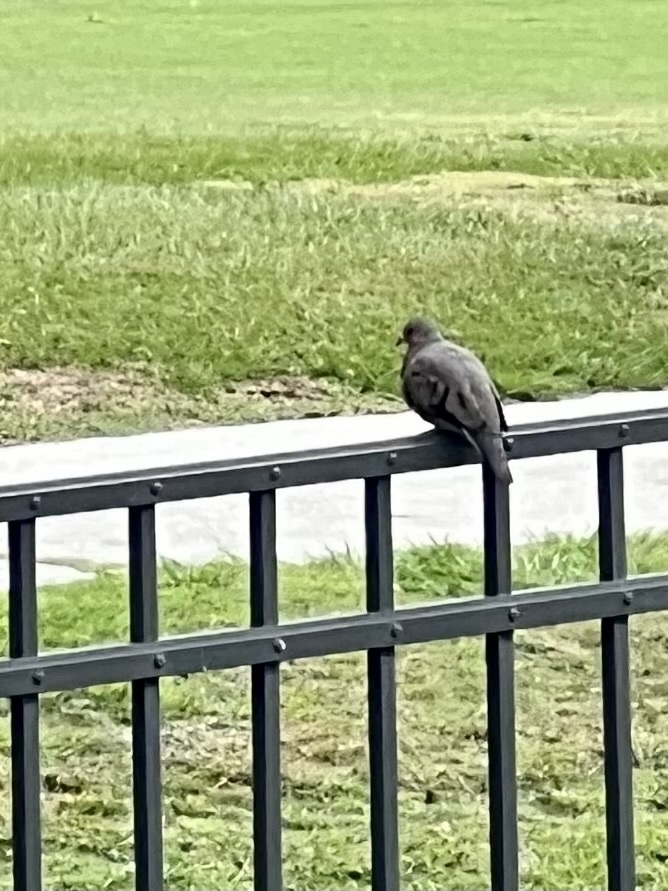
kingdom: Animalia
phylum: Chordata
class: Aves
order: Columbiformes
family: Columbidae
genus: Columbina
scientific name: Columbina passerina
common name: Common ground-dove
